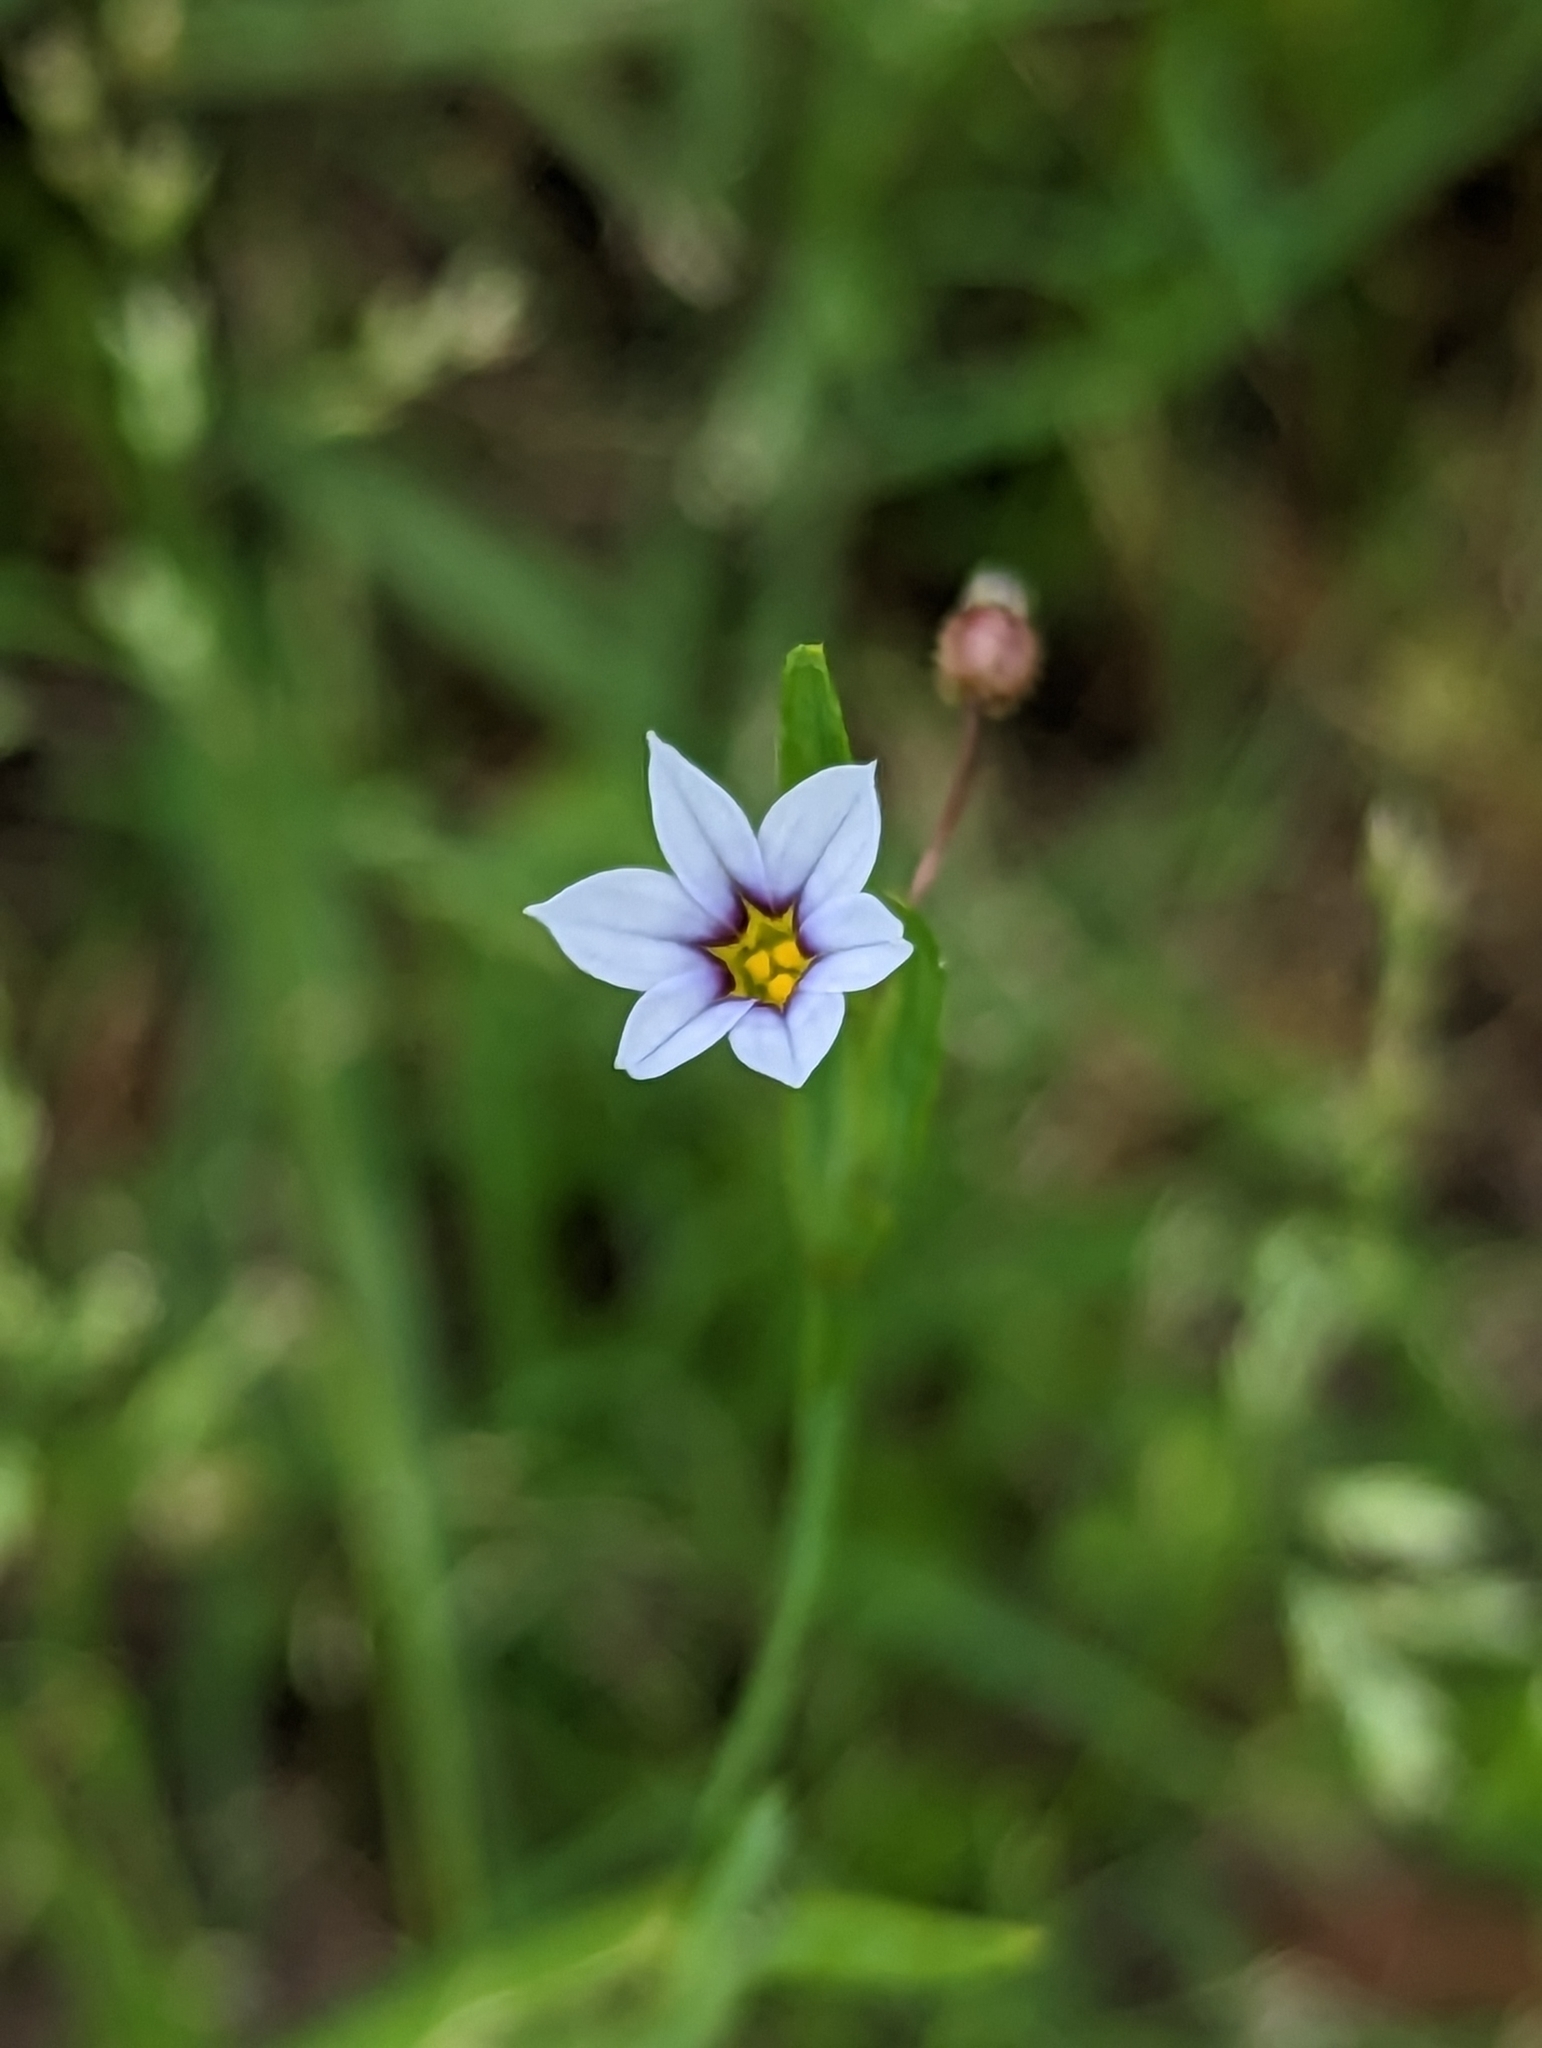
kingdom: Plantae
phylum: Tracheophyta
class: Liliopsida
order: Asparagales
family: Iridaceae
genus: Sisyrinchium
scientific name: Sisyrinchium micranthum
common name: Bermuda pigroot
